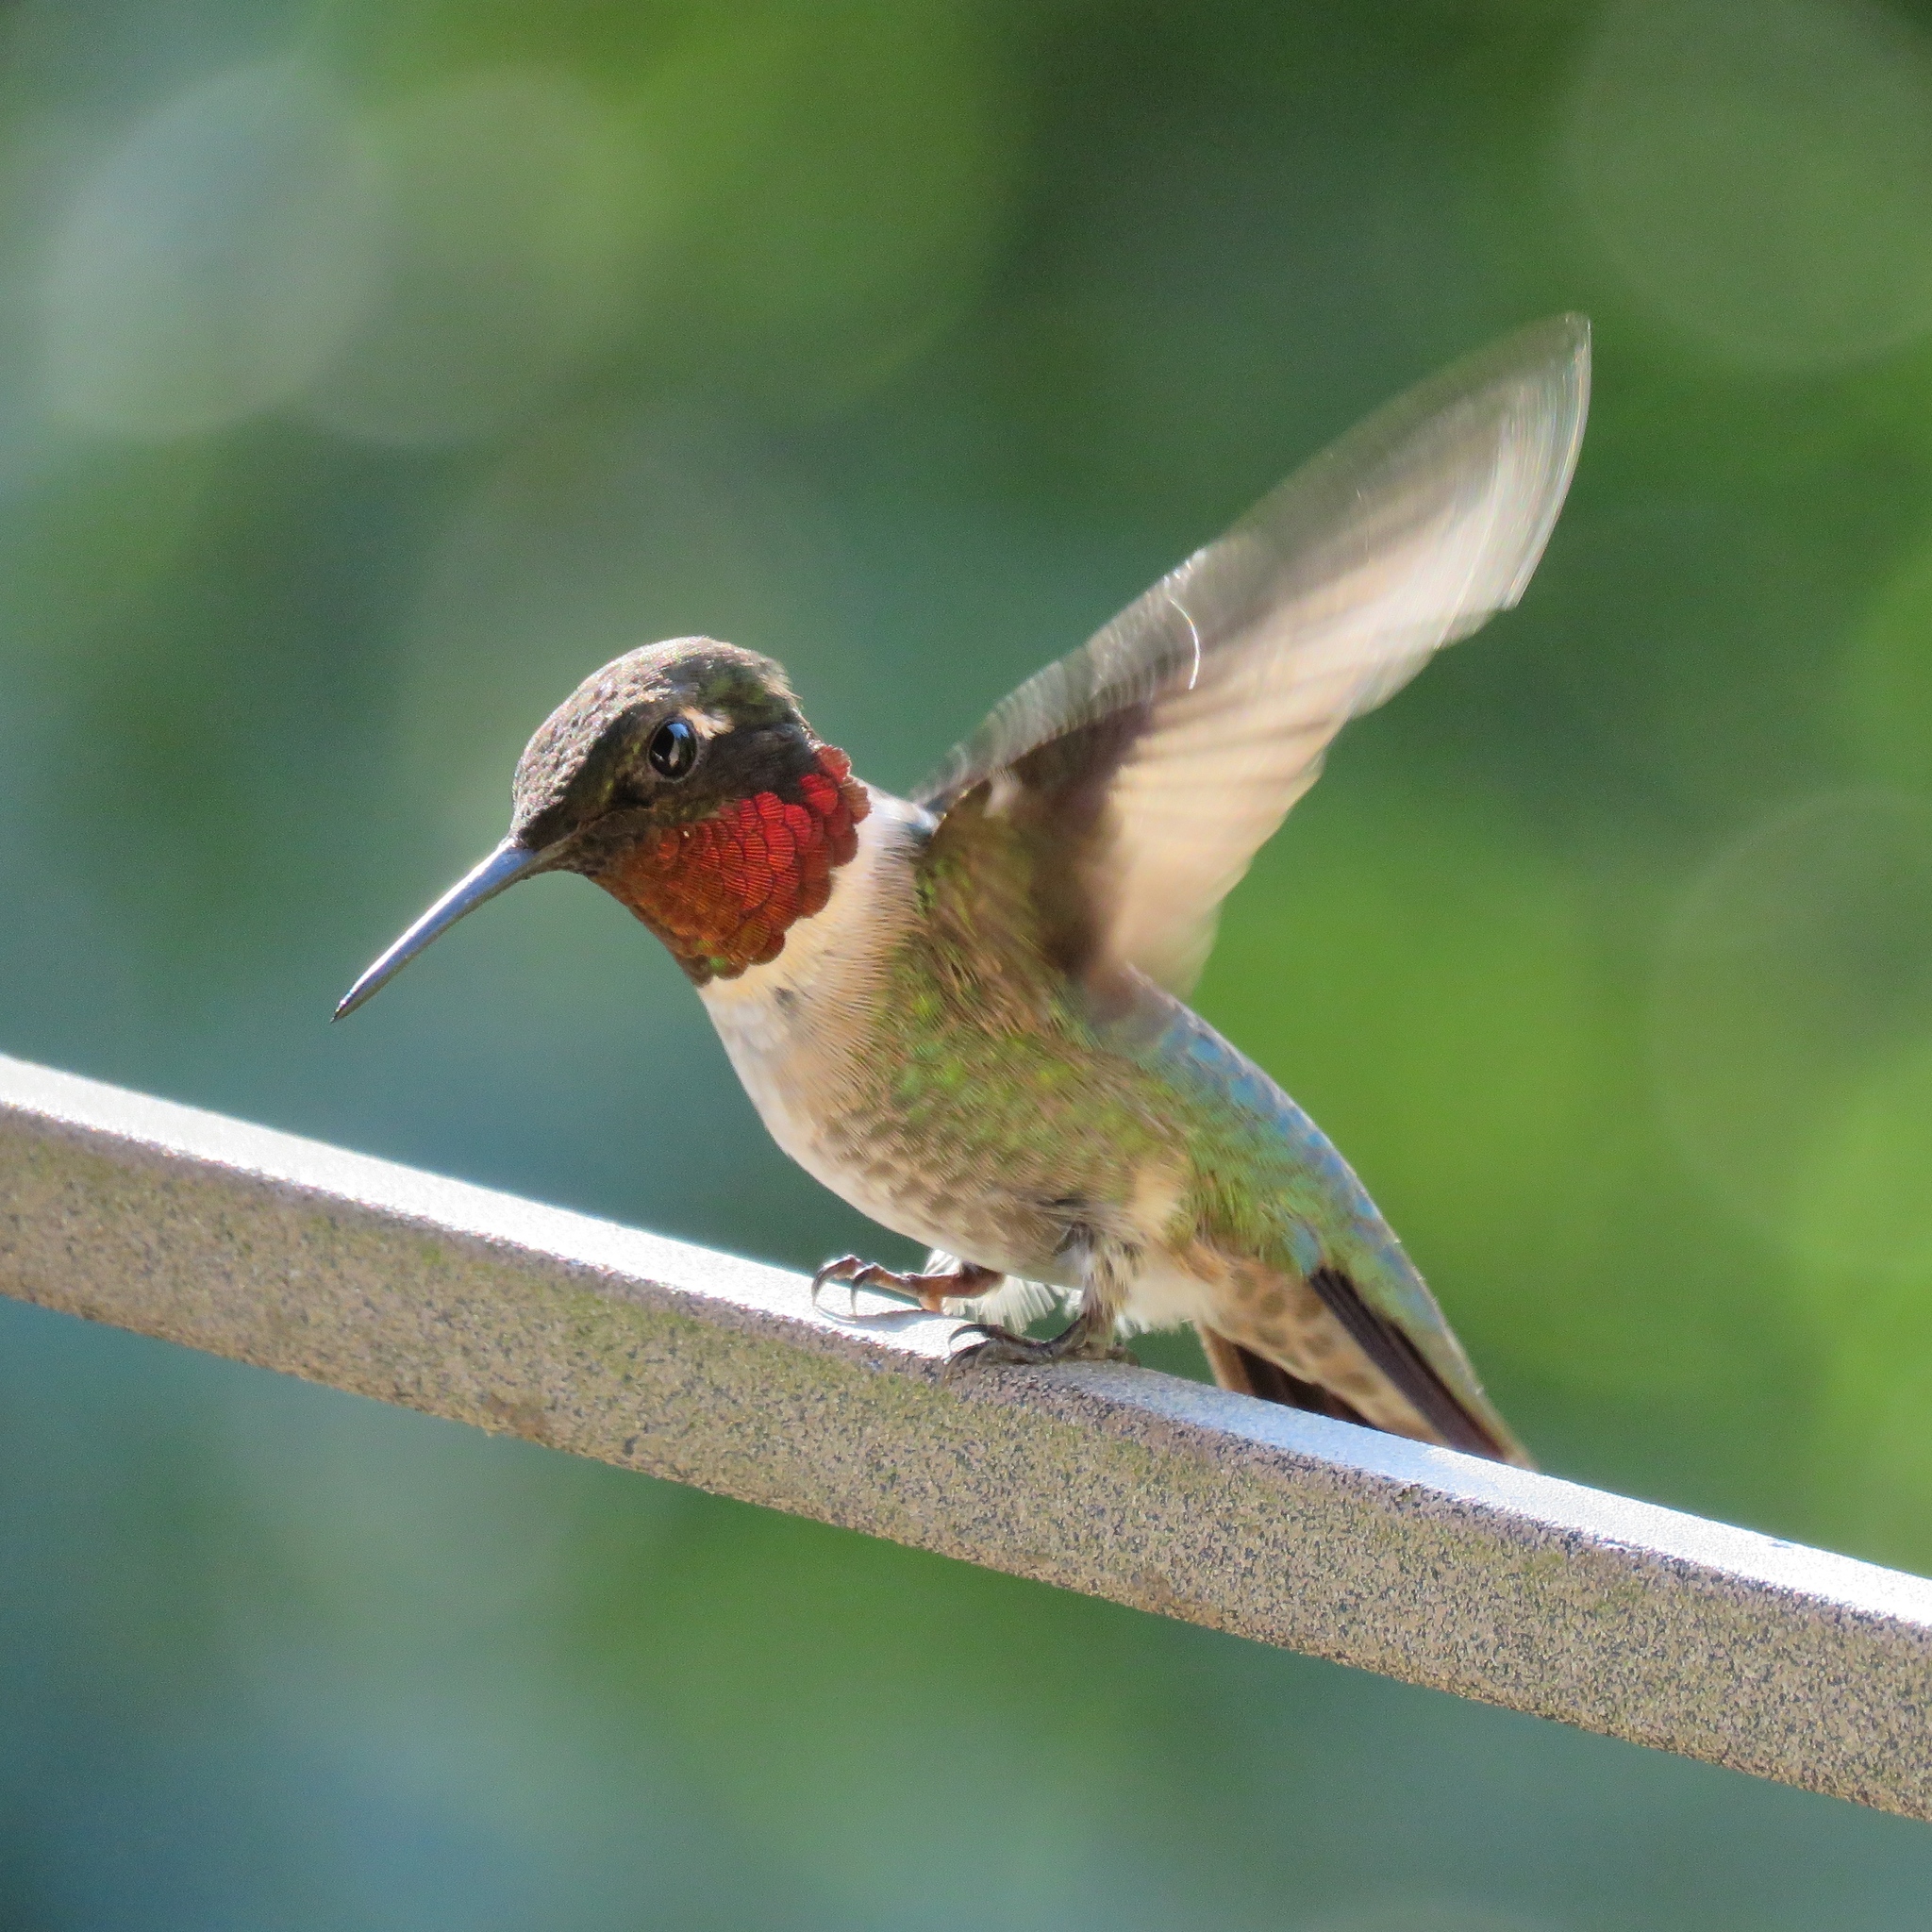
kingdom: Animalia
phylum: Chordata
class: Aves
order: Apodiformes
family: Trochilidae
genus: Archilochus
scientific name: Archilochus colubris
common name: Ruby-throated hummingbird
